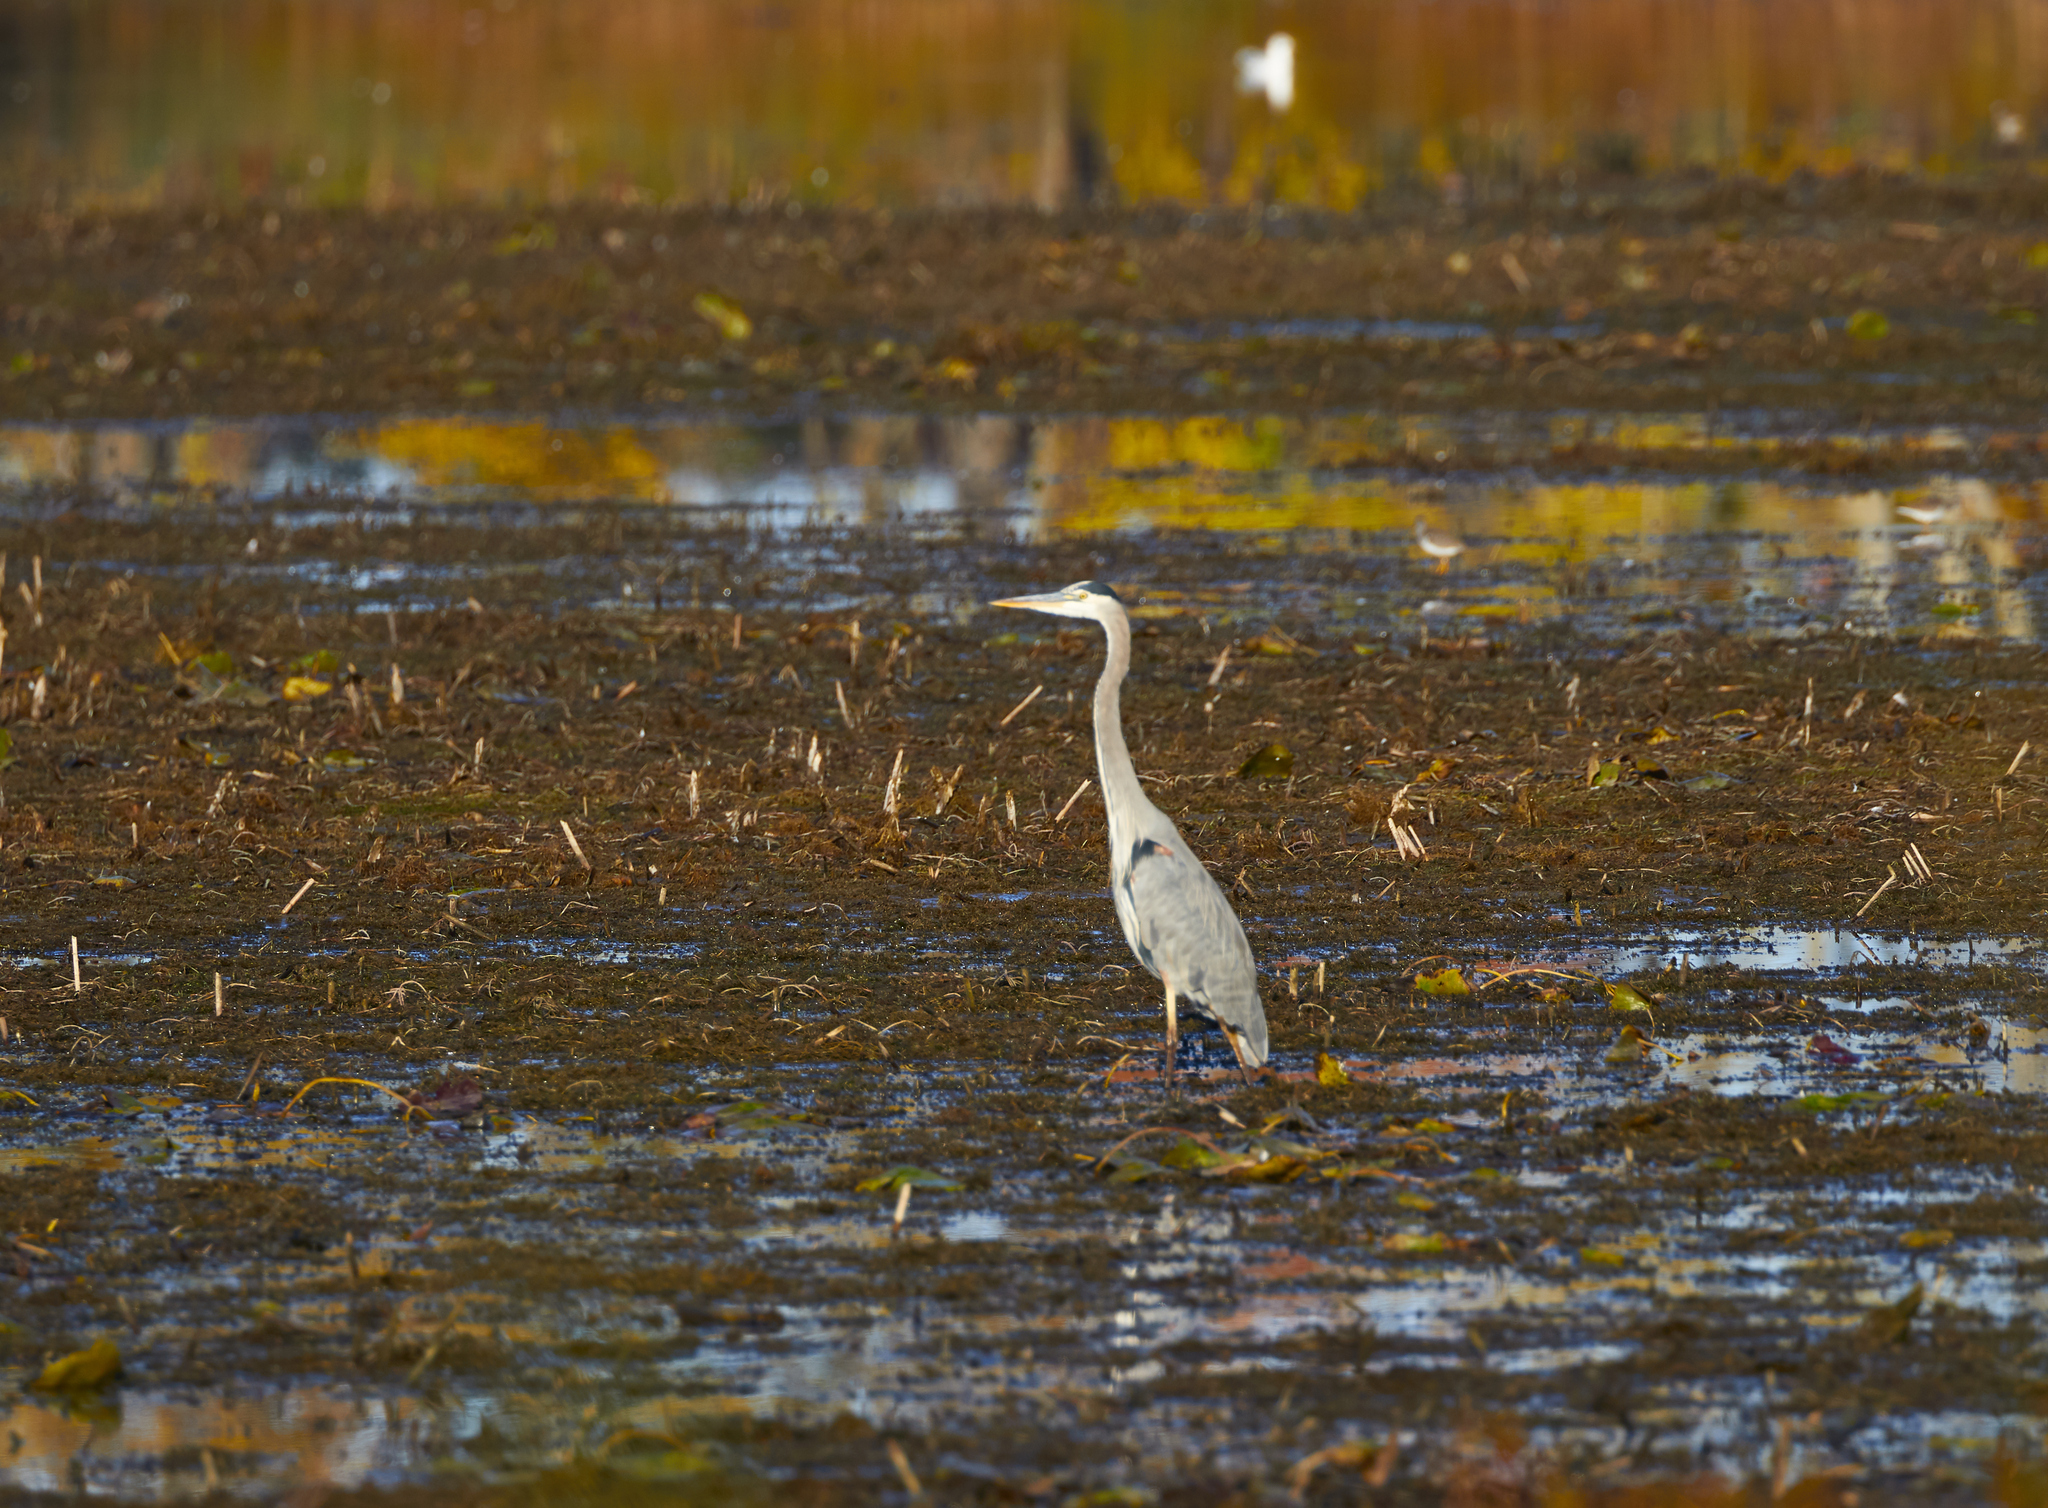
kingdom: Animalia
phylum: Chordata
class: Aves
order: Pelecaniformes
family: Ardeidae
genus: Ardea
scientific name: Ardea herodias
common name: Great blue heron
